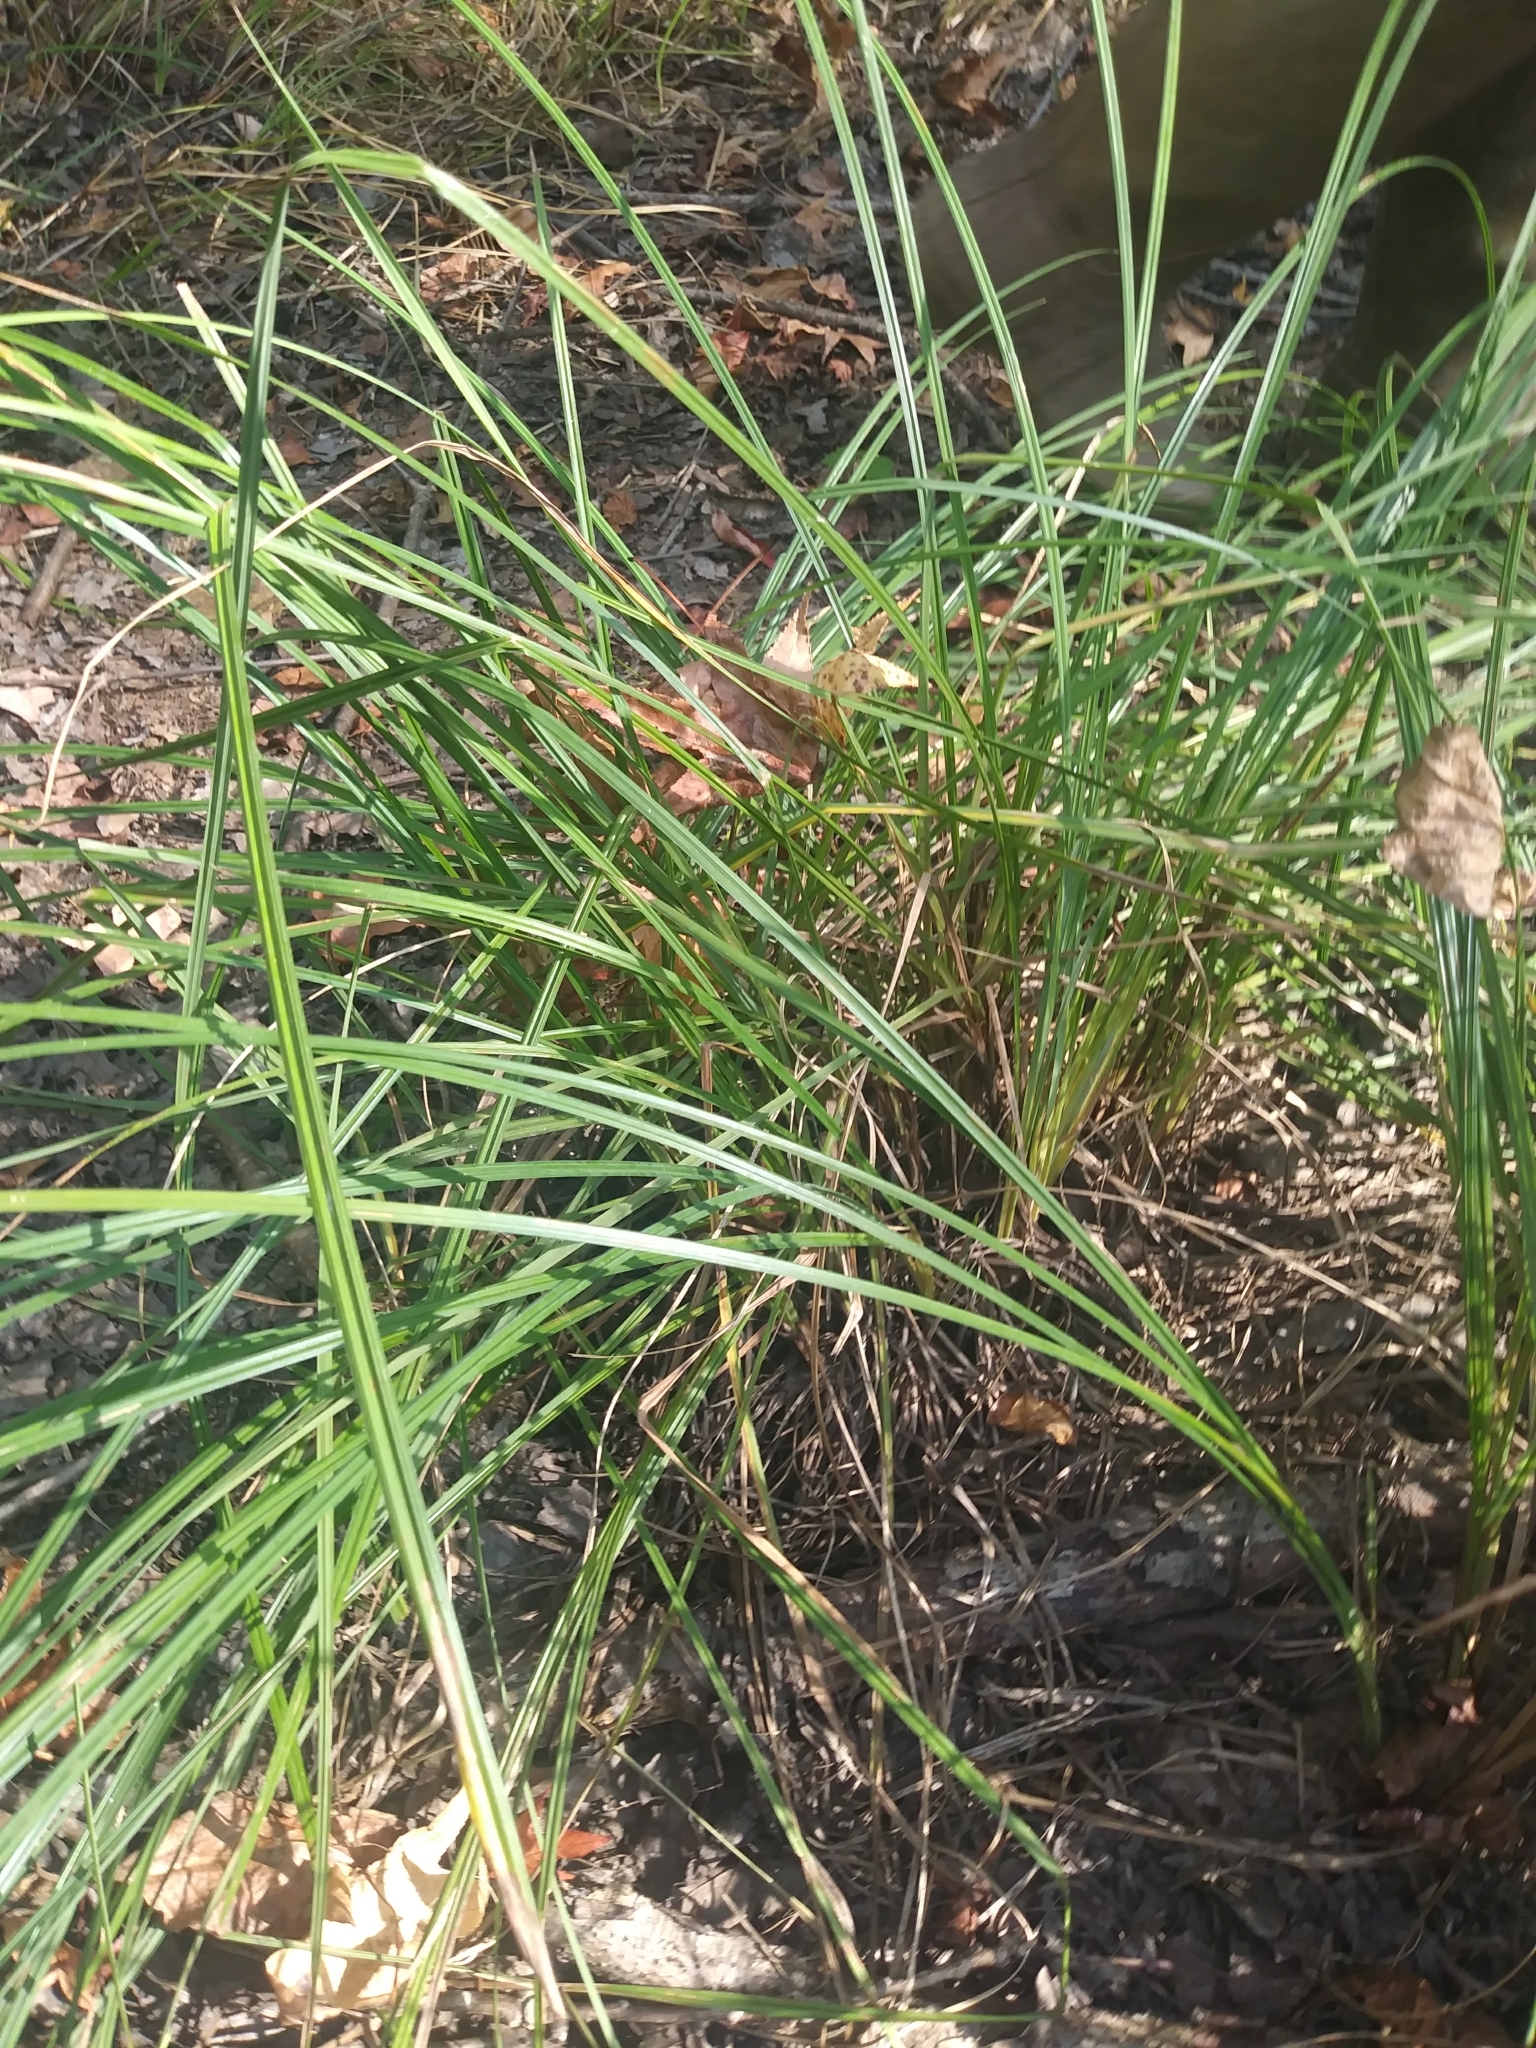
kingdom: Plantae
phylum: Tracheophyta
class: Liliopsida
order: Poales
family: Cyperaceae
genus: Carex
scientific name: Carex barrattii
